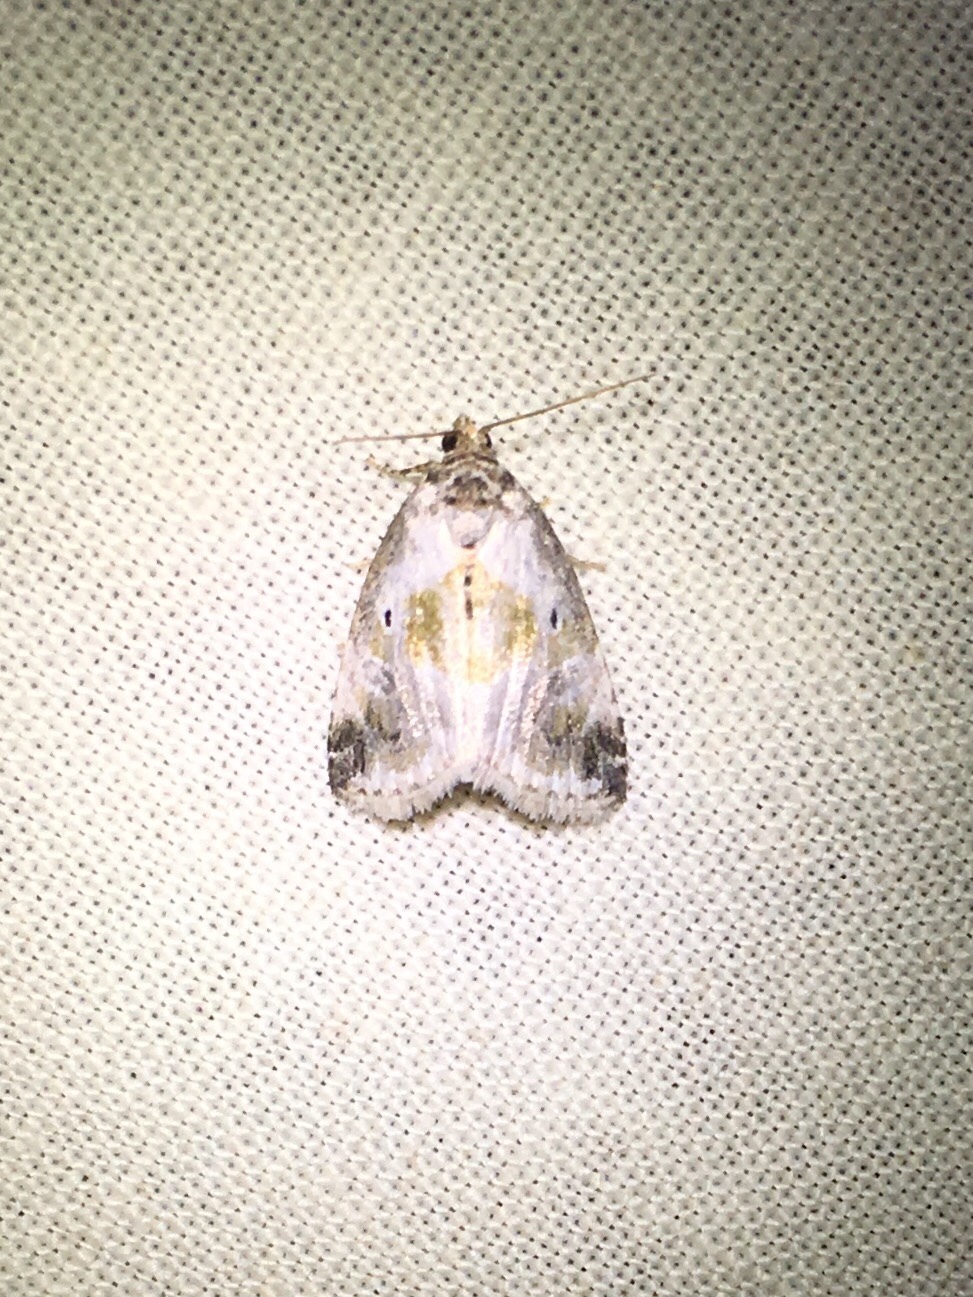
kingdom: Animalia
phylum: Arthropoda
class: Insecta
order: Lepidoptera
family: Noctuidae
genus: Maliattha
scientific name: Maliattha synochitis
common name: Black-dotted glyph
